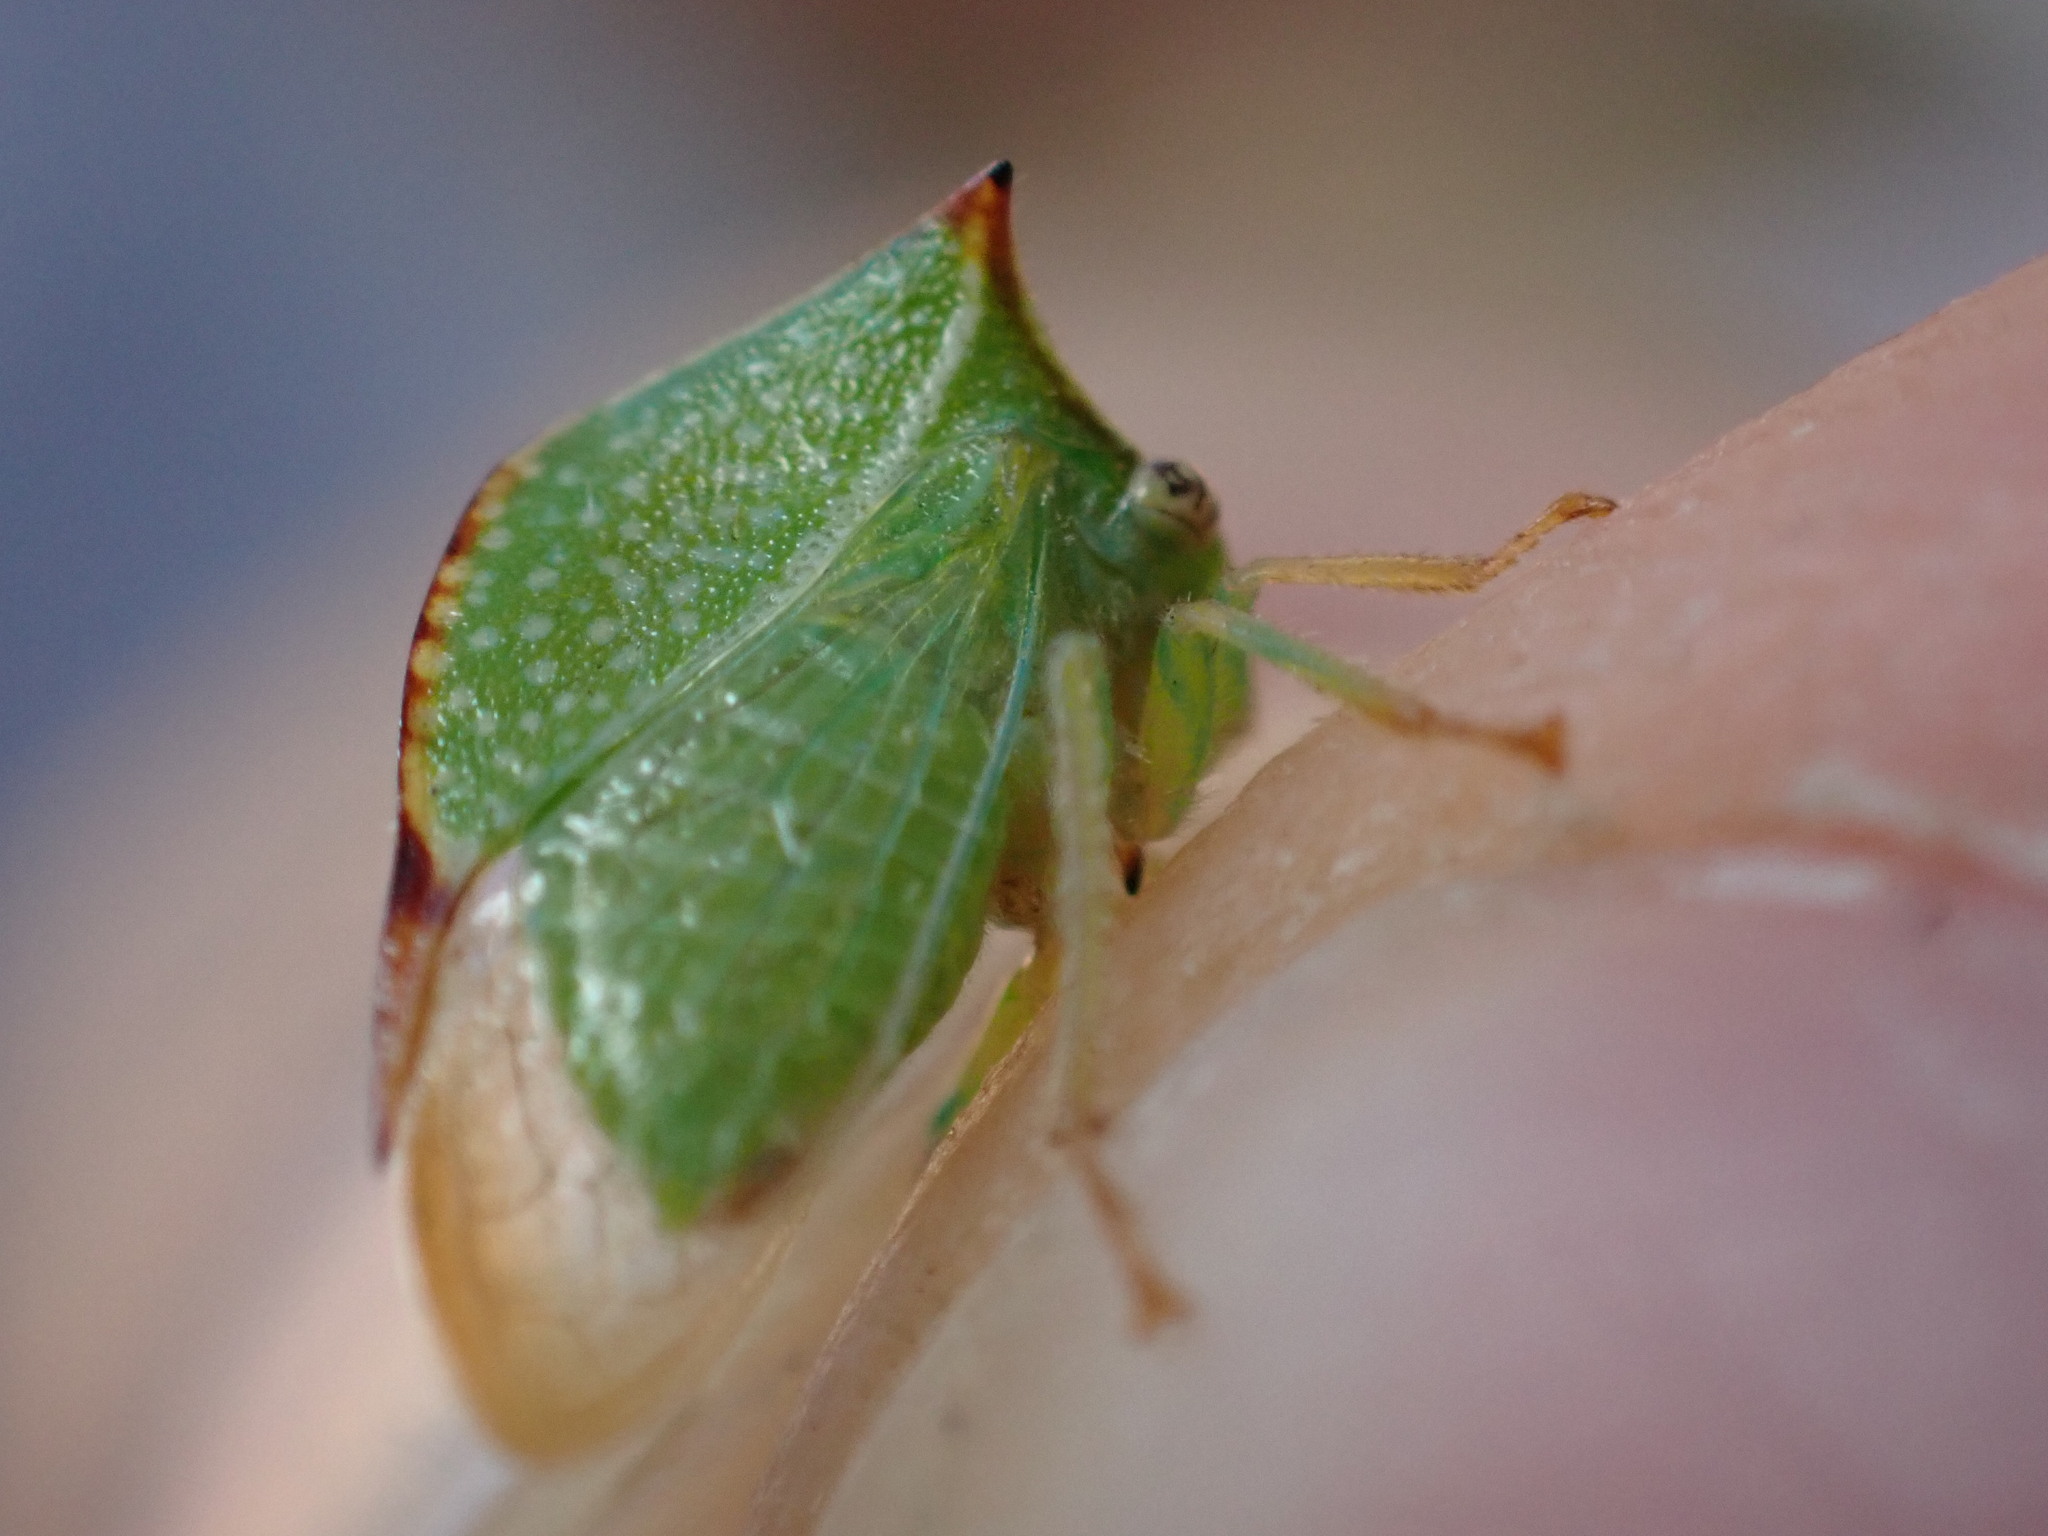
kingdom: Animalia
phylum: Arthropoda
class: Insecta
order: Hemiptera
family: Membracidae
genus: Stictocephala
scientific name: Stictocephala bisonia
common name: American buffalo treehopper
